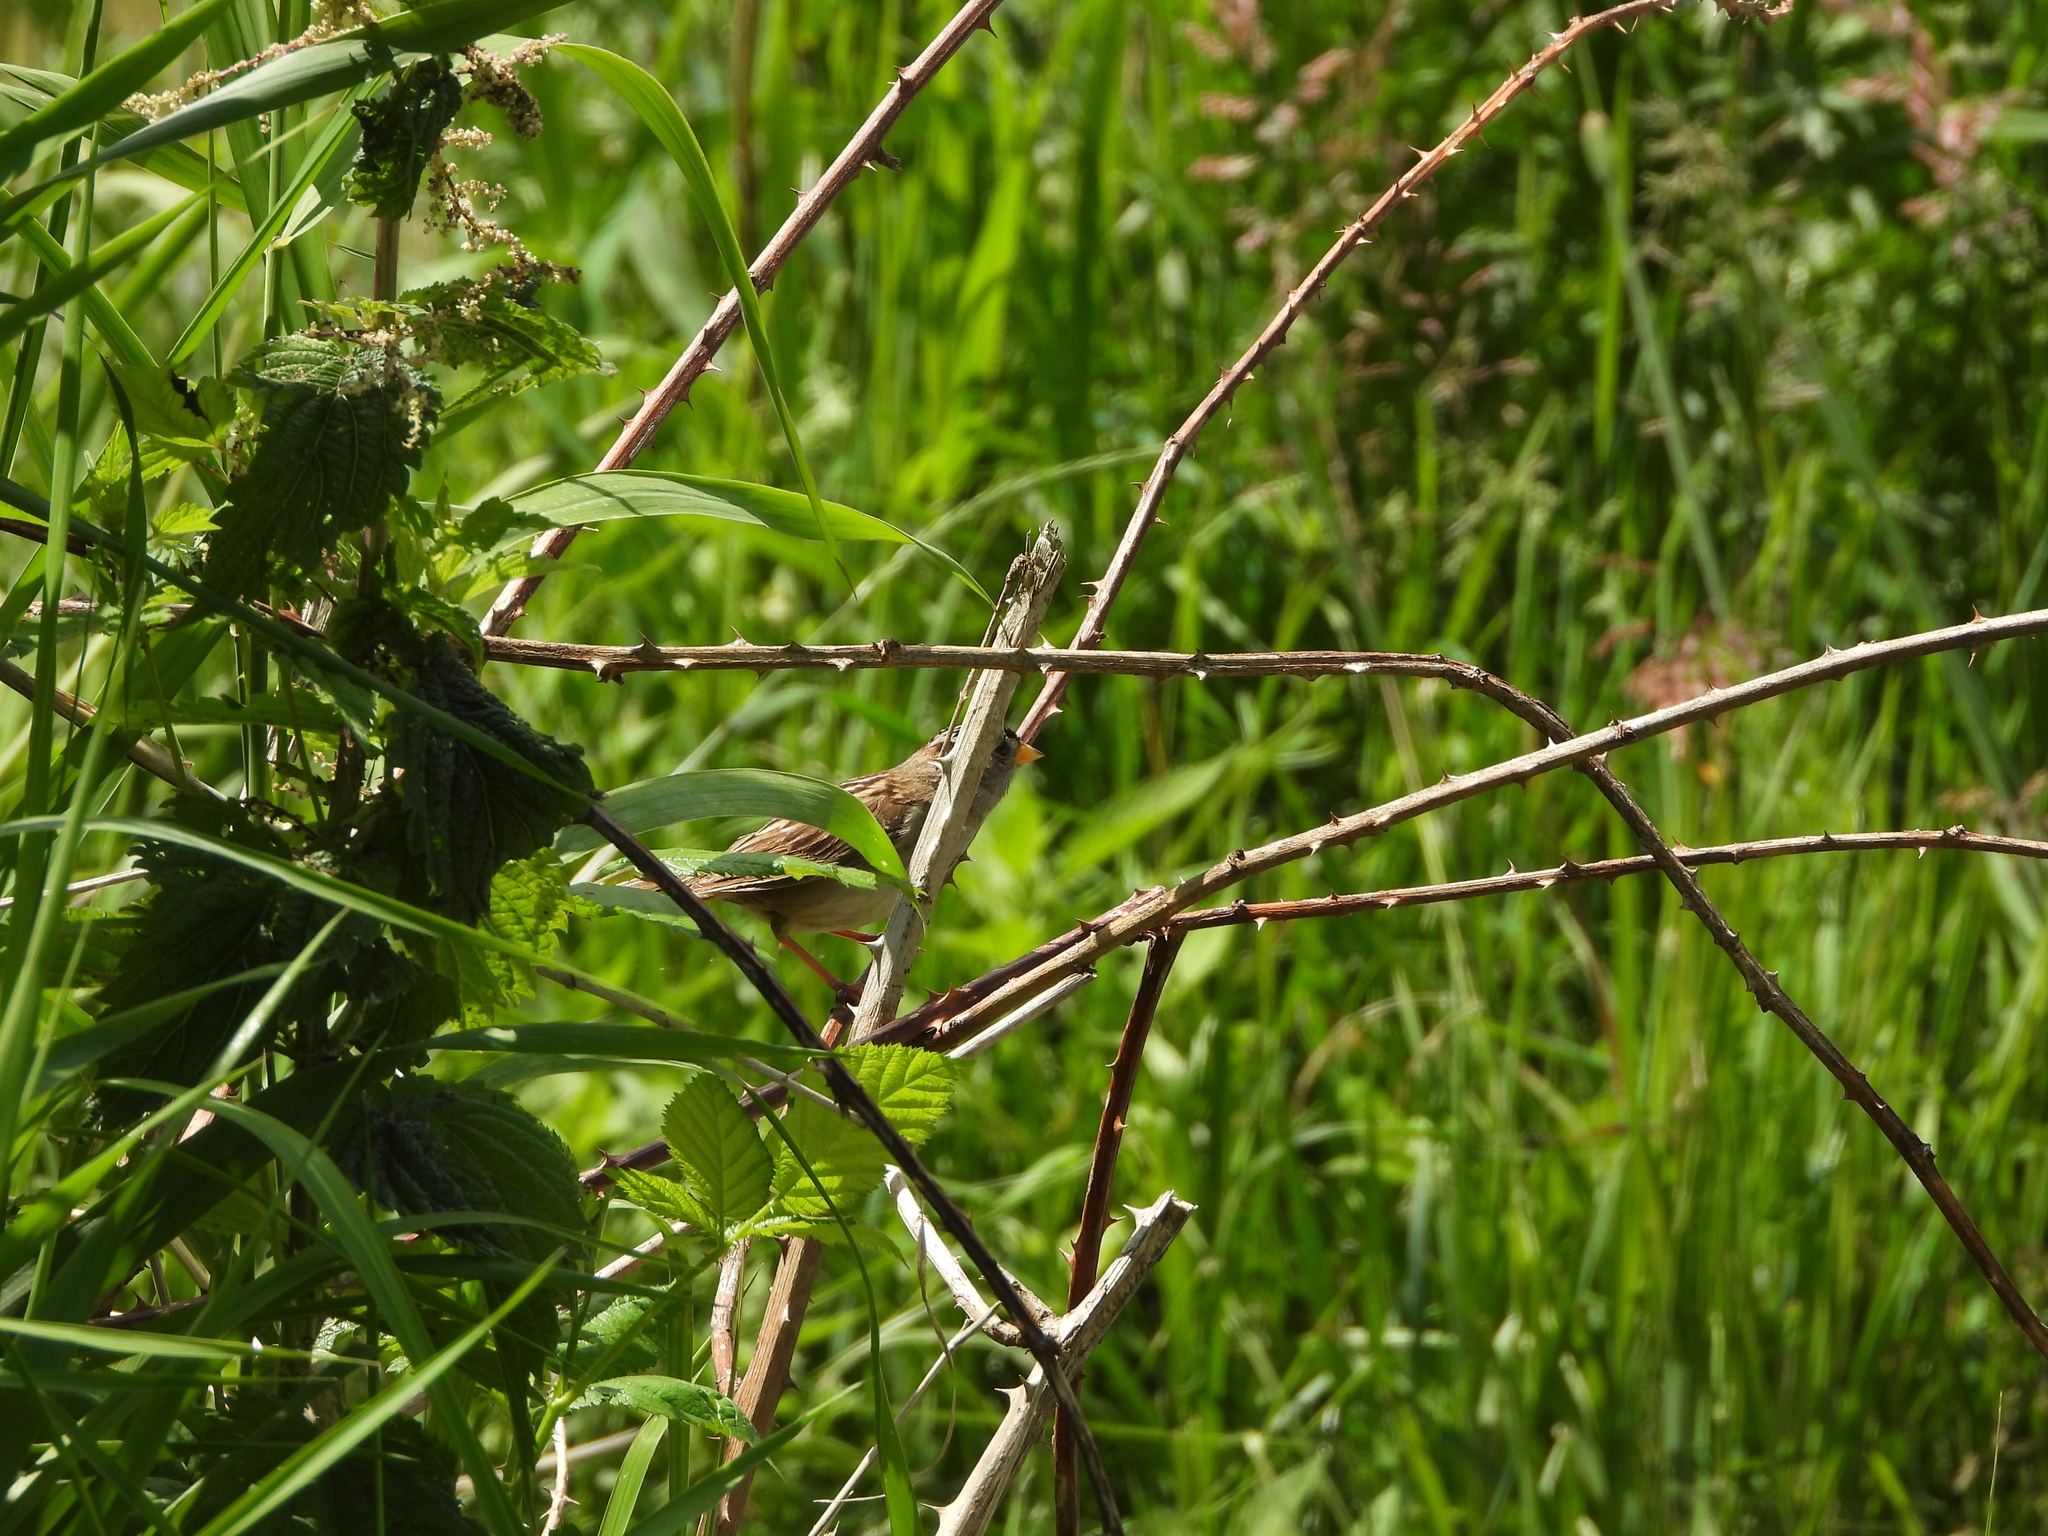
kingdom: Animalia
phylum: Chordata
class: Aves
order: Passeriformes
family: Passerellidae
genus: Zonotrichia
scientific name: Zonotrichia leucophrys
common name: White-crowned sparrow
